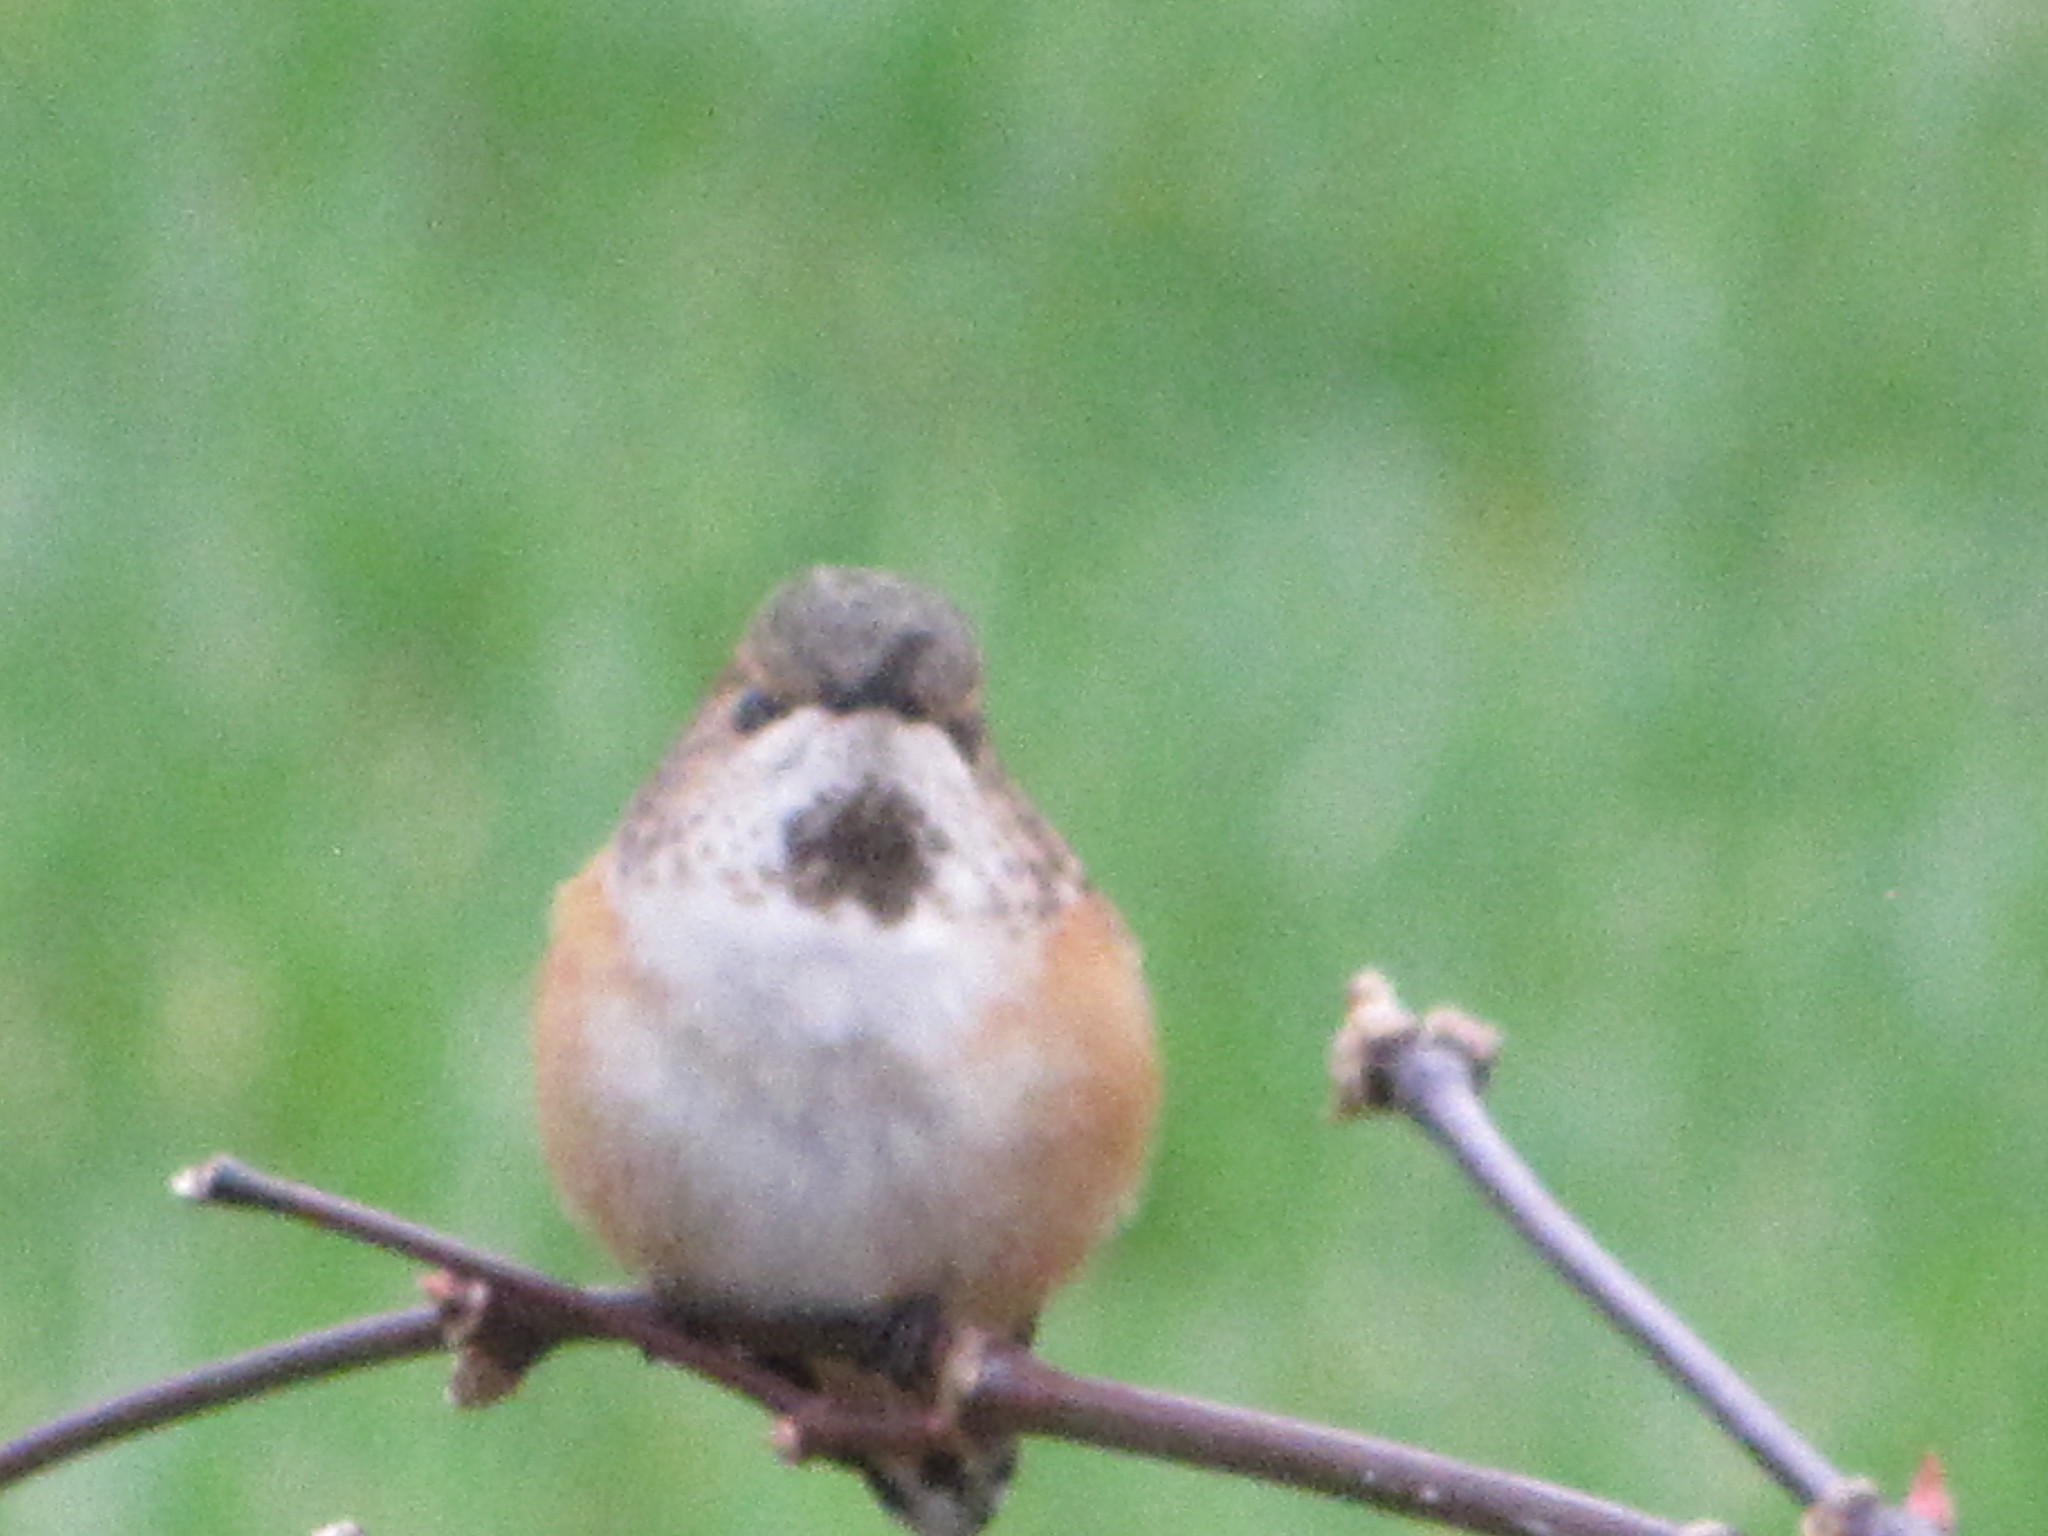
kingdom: Animalia
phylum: Chordata
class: Aves
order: Apodiformes
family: Trochilidae
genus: Selasphorus
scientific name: Selasphorus rufus
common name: Rufous hummingbird
